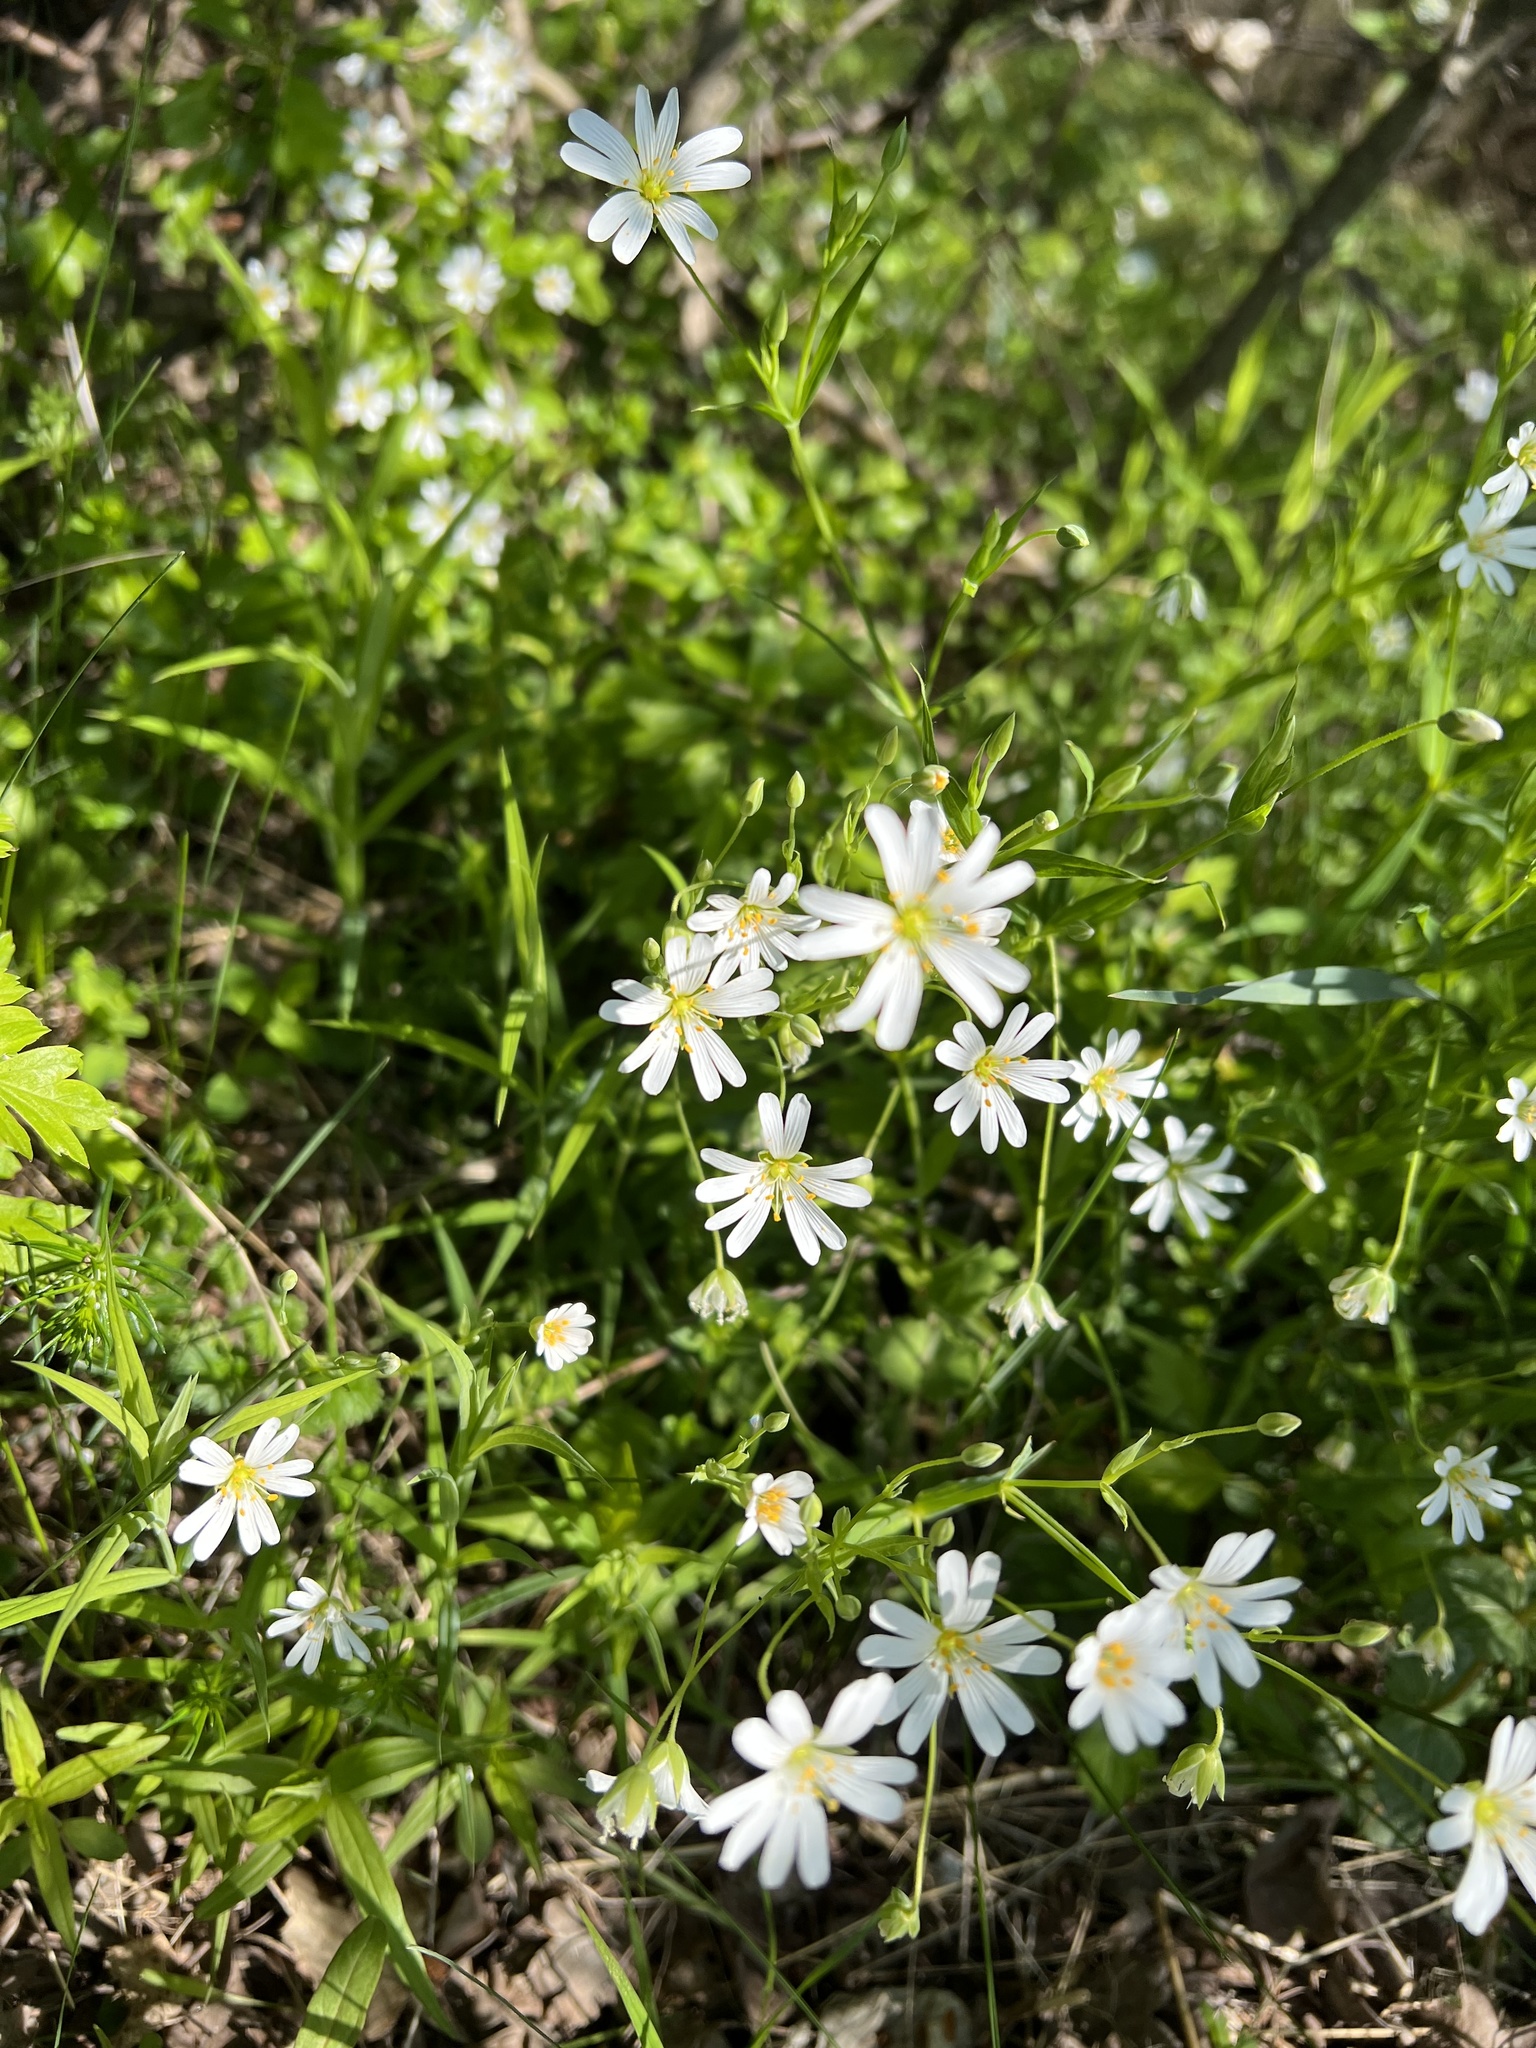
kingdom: Plantae
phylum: Tracheophyta
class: Magnoliopsida
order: Caryophyllales
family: Caryophyllaceae
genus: Rabelera
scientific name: Rabelera holostea
